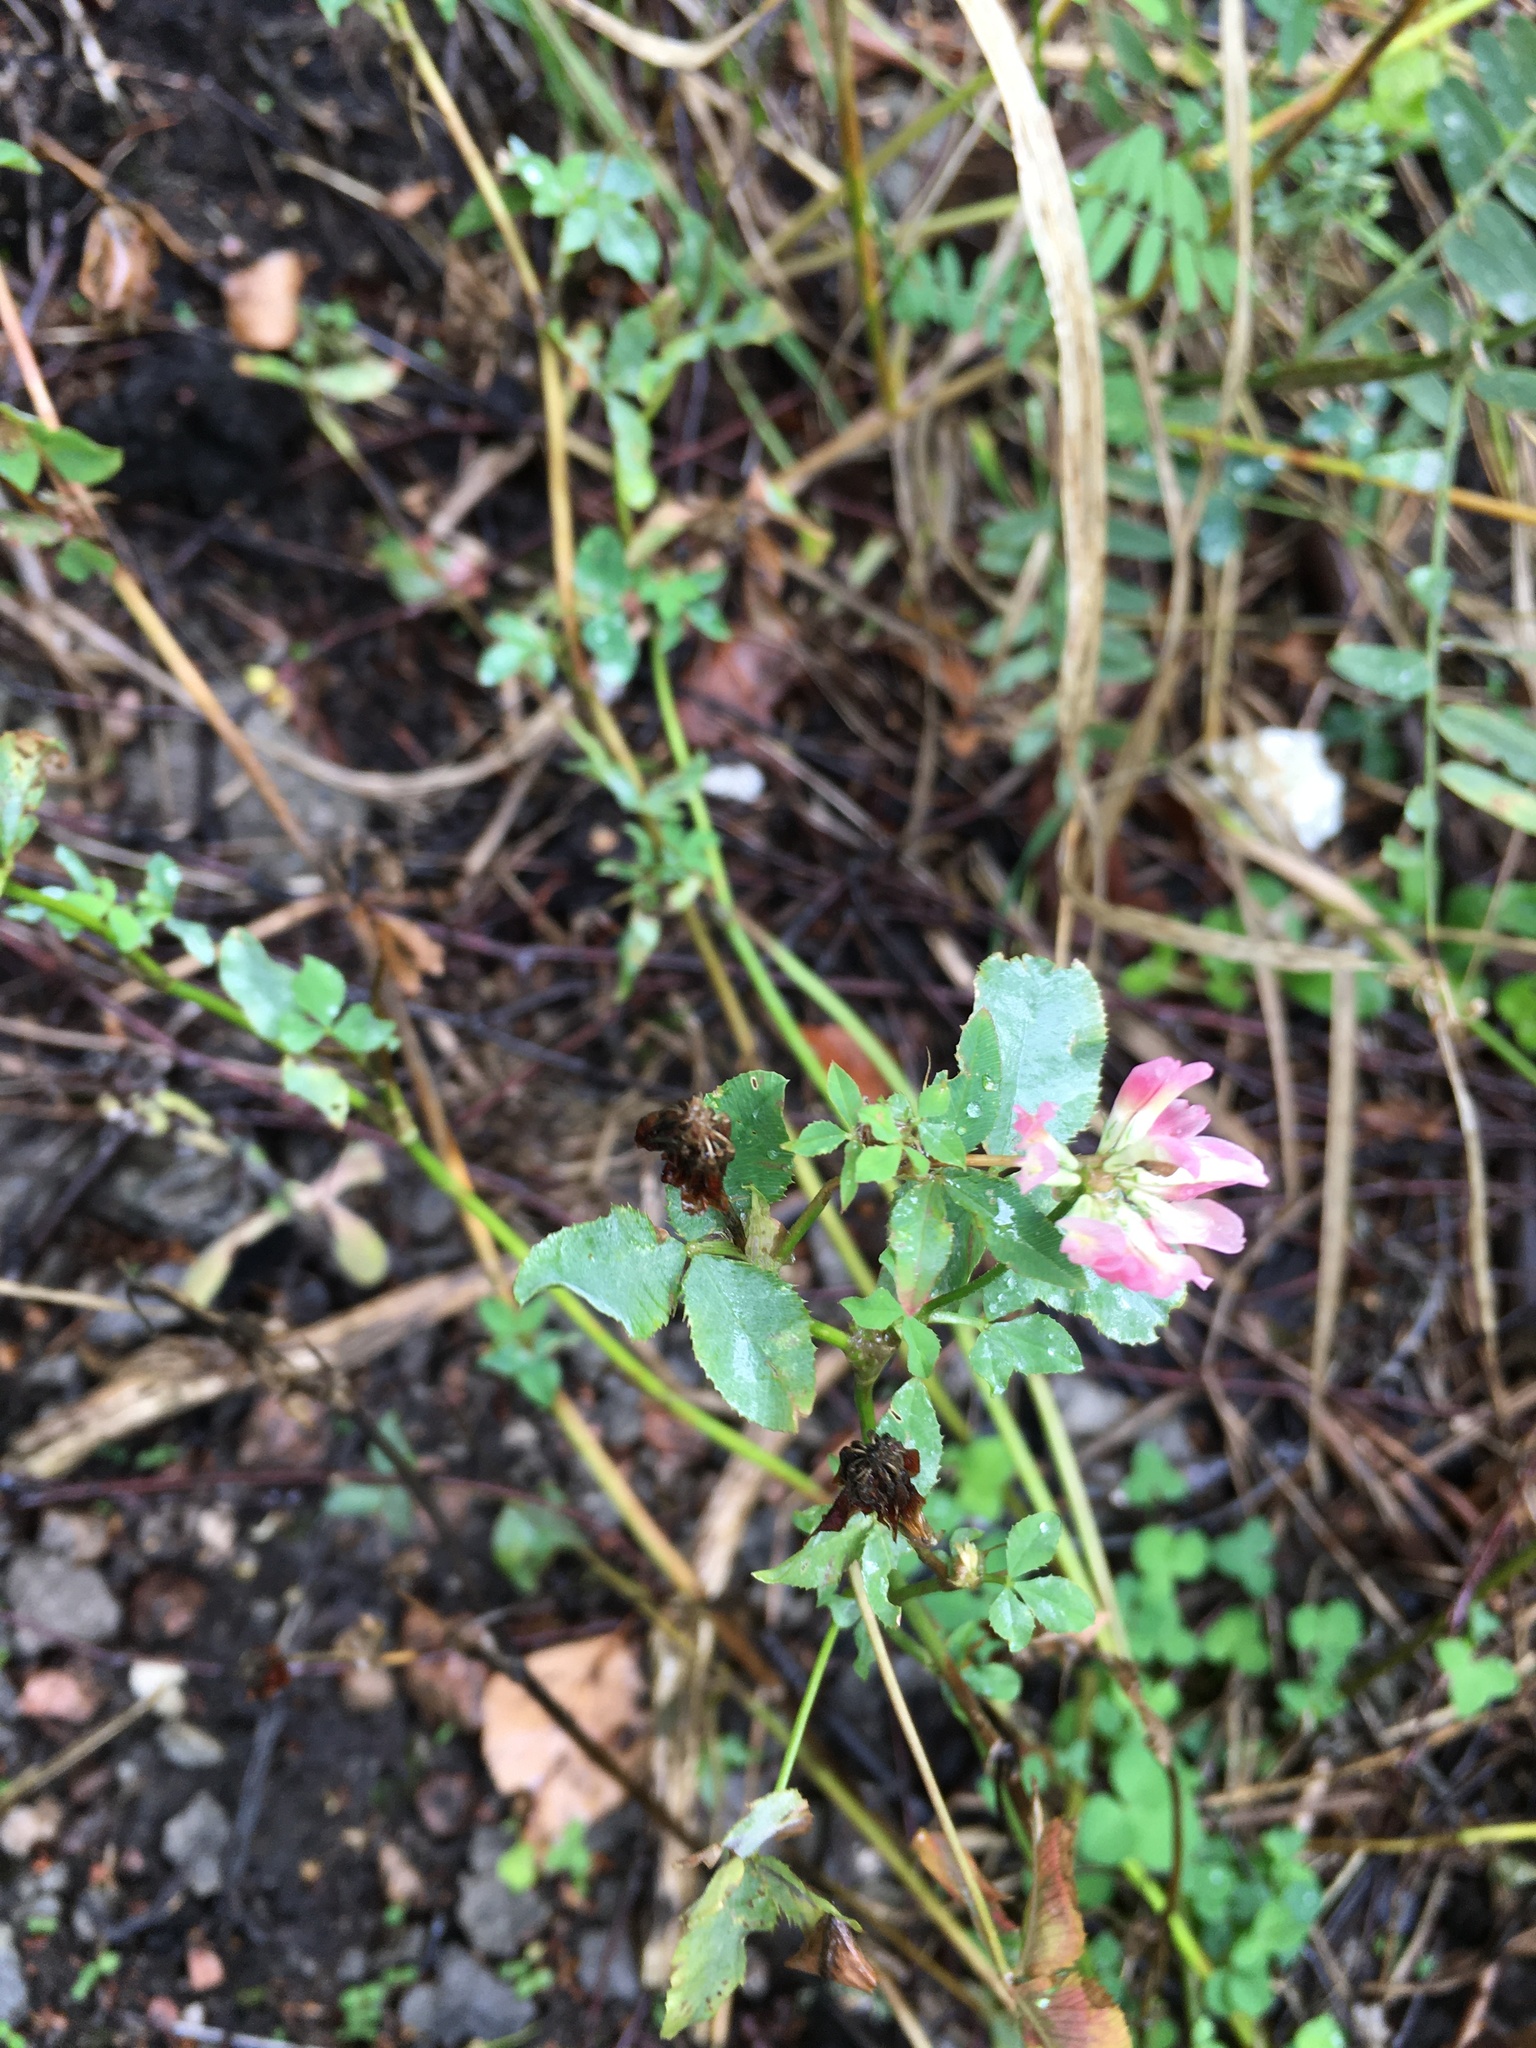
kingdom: Plantae
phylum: Tracheophyta
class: Magnoliopsida
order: Fabales
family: Fabaceae
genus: Trifolium
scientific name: Trifolium hybridum
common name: Alsike clover
